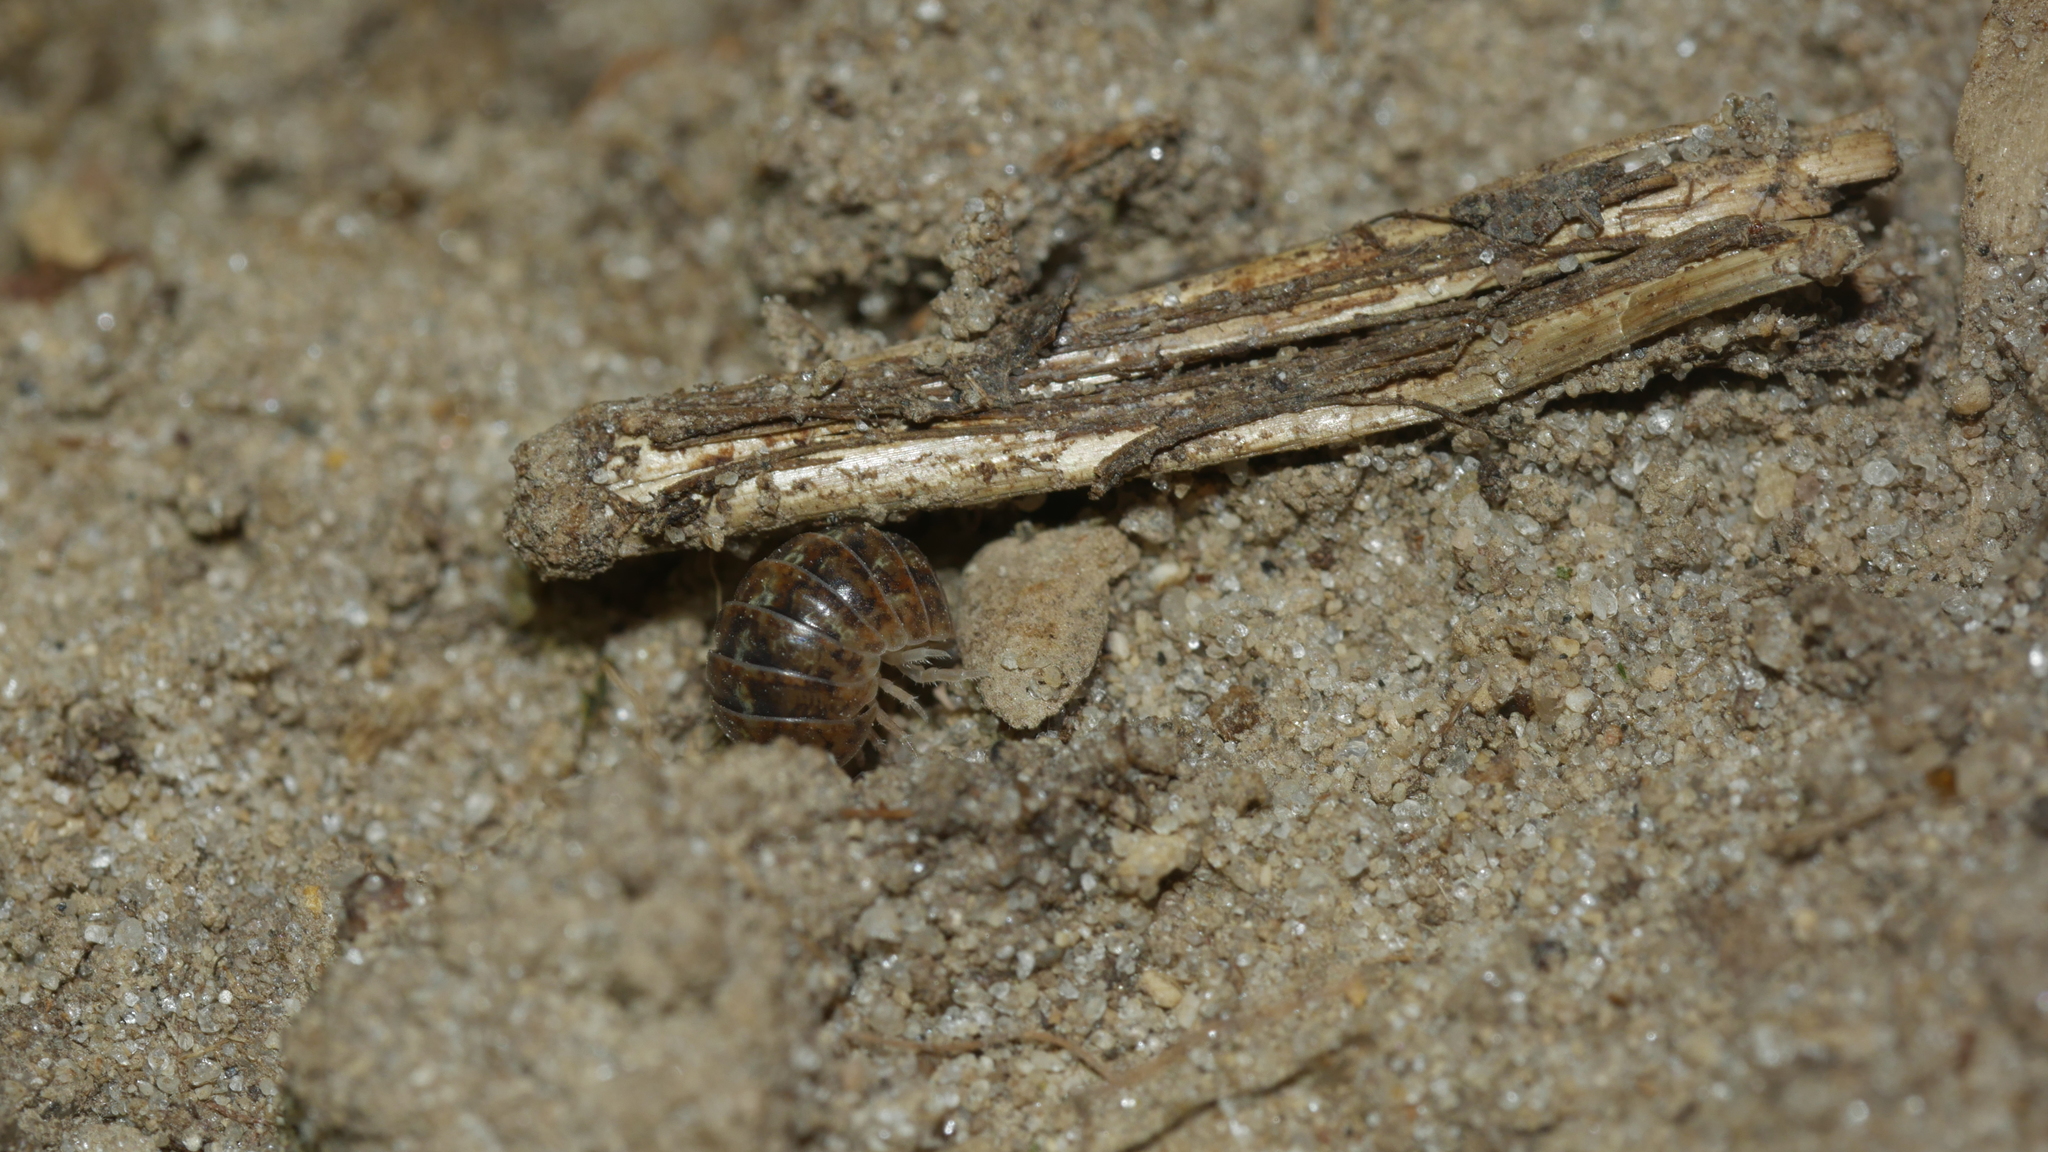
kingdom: Animalia
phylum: Arthropoda
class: Malacostraca
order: Isopoda
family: Armadillidiidae
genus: Armadillidium
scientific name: Armadillidium vulgare
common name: Common pill woodlouse
